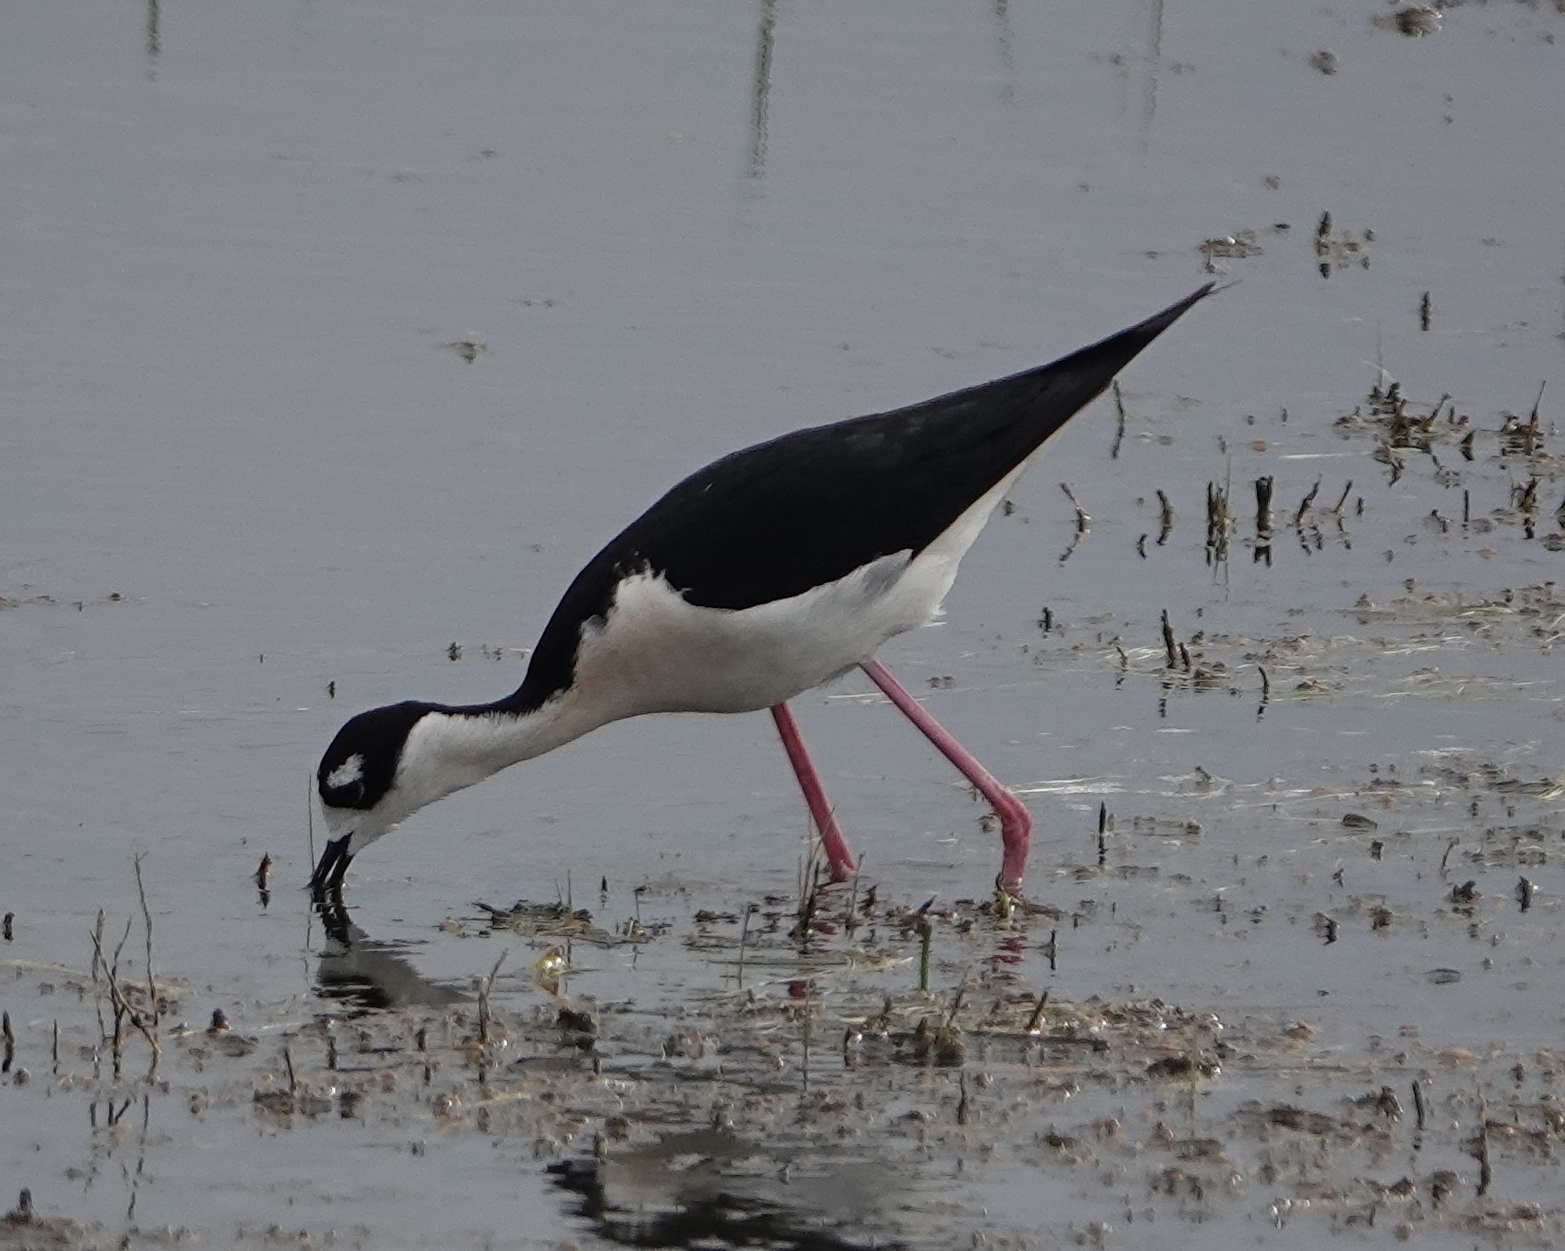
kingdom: Animalia
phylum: Chordata
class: Aves
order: Charadriiformes
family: Recurvirostridae
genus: Himantopus
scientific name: Himantopus mexicanus
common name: Black-necked stilt
